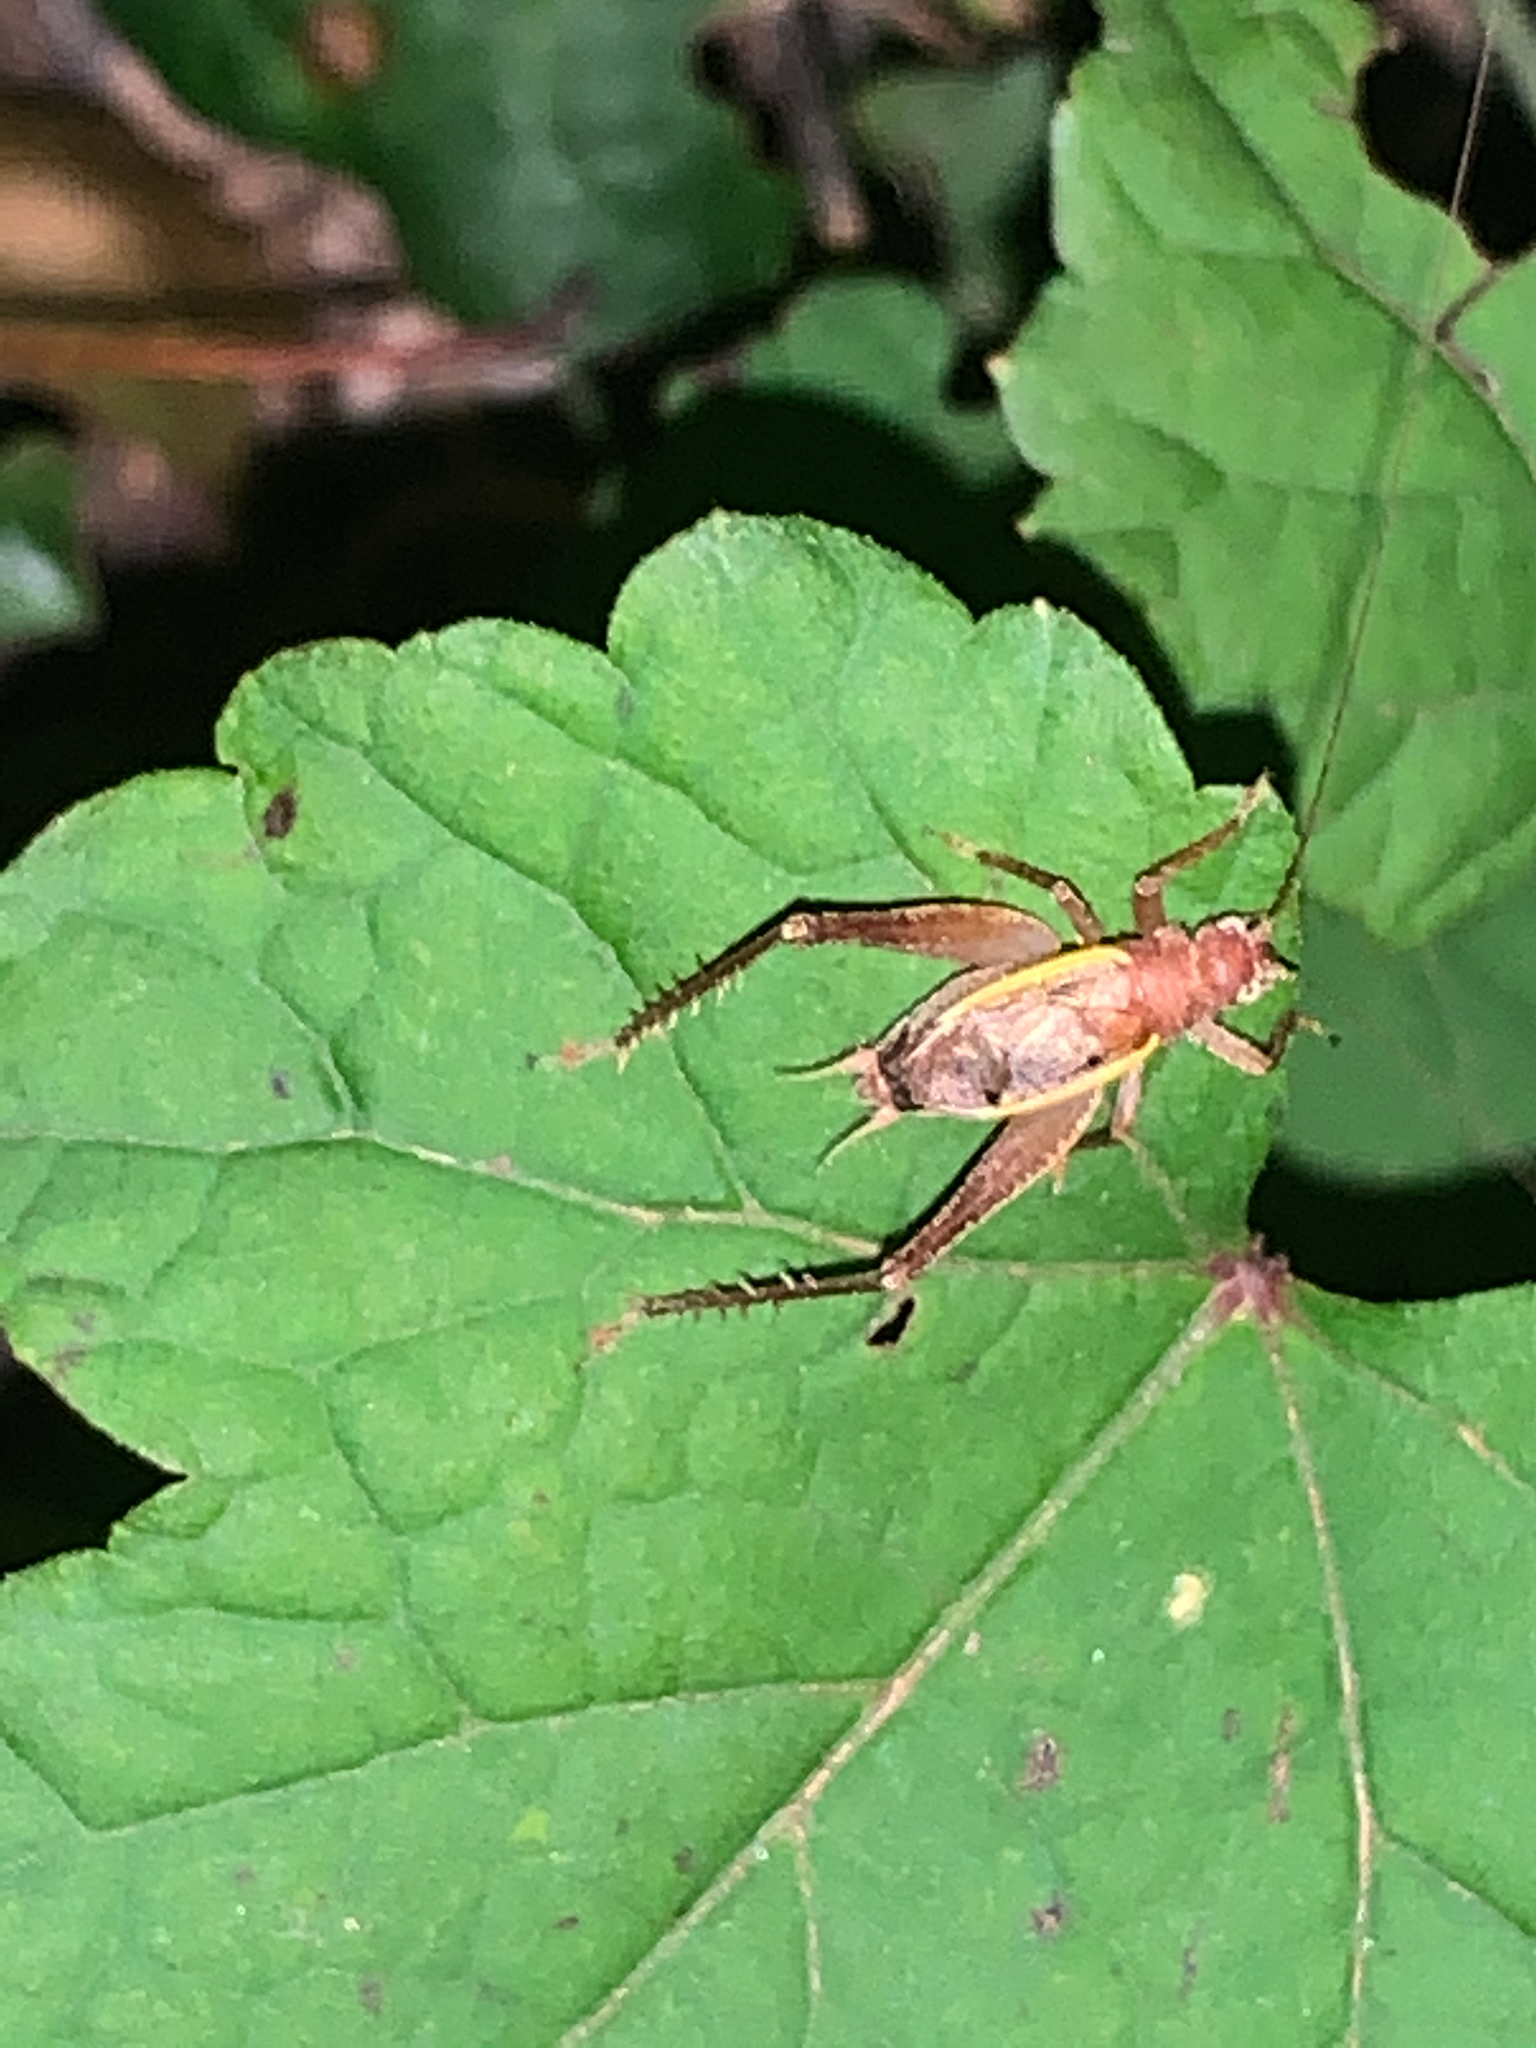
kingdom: Animalia
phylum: Arthropoda
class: Insecta
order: Orthoptera
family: Gryllidae
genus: Hapithus
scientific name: Hapithus agitator
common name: Restless bush cricket
